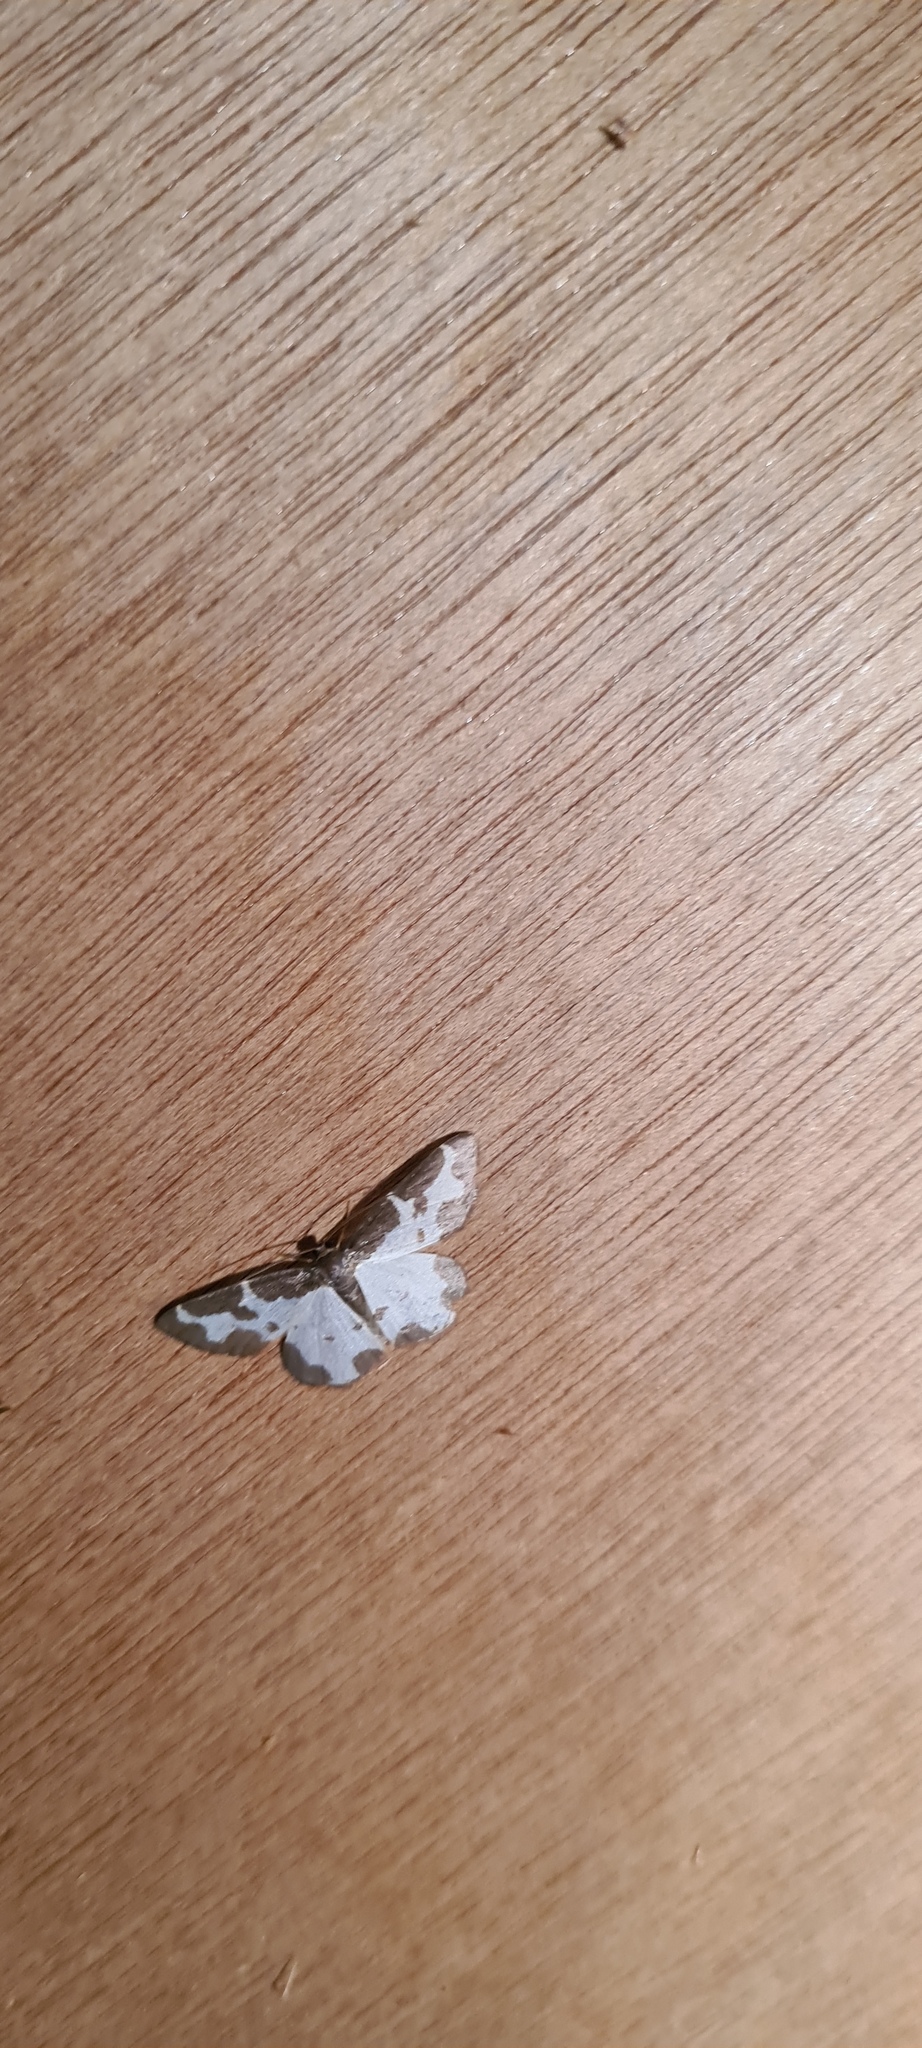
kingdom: Animalia
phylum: Arthropoda
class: Insecta
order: Lepidoptera
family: Geometridae
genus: Lomaspilis
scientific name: Lomaspilis marginata
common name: Clouded border
